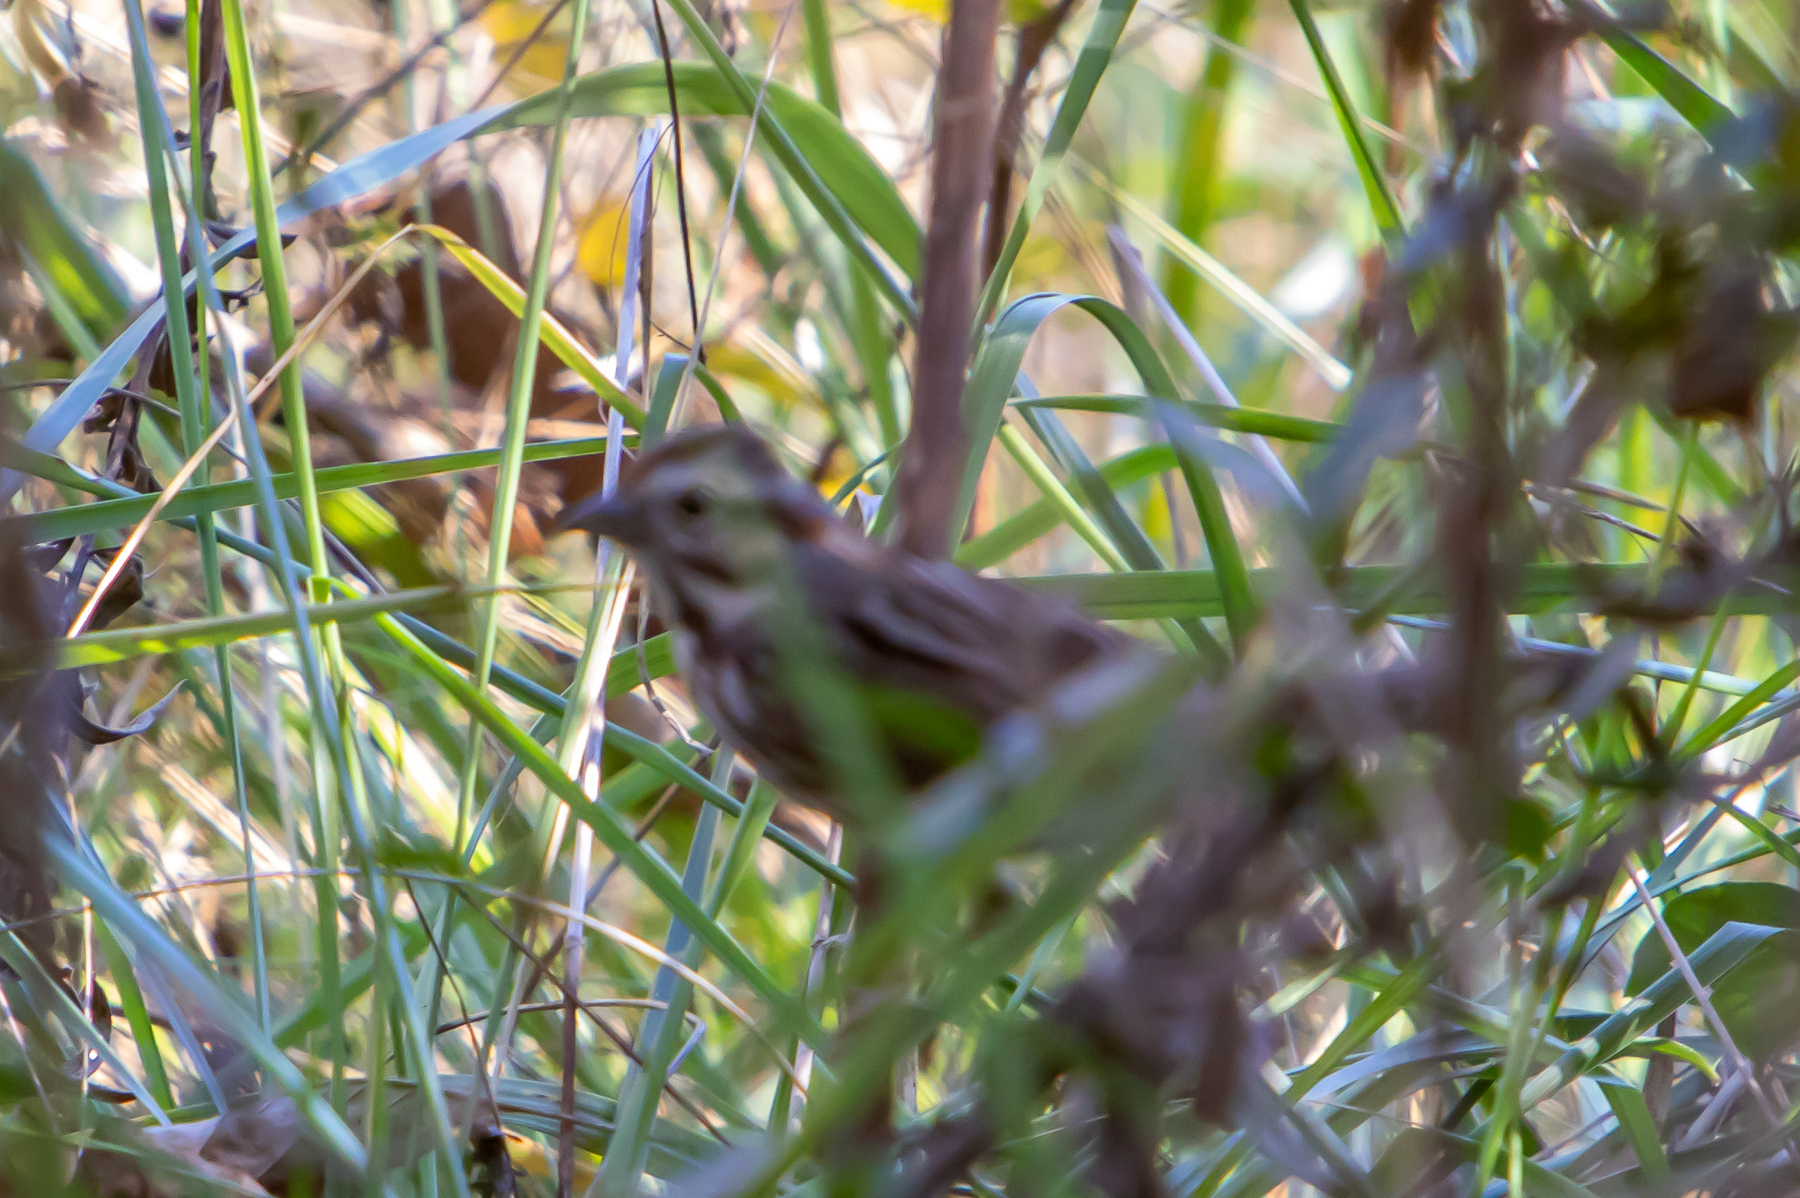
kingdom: Animalia
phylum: Chordata
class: Aves
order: Passeriformes
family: Passerellidae
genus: Melospiza
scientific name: Melospiza melodia
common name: Song sparrow
